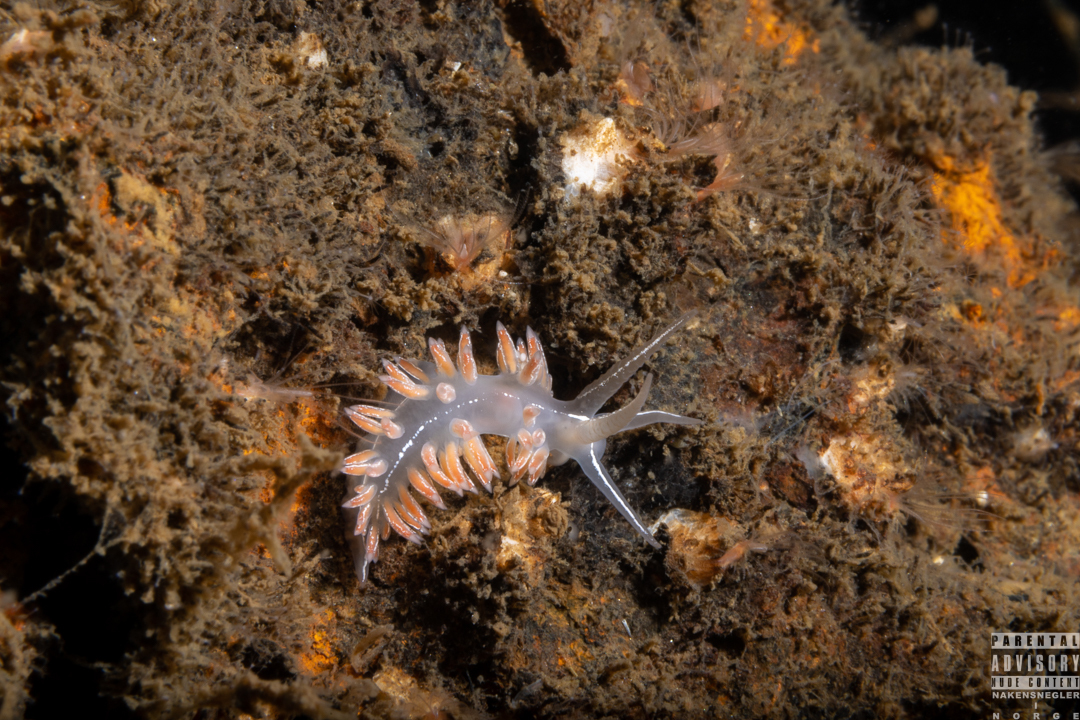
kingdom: Animalia
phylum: Mollusca
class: Gastropoda
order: Nudibranchia
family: Coryphellidae
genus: Coryphella
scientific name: Coryphella chriskaugei
